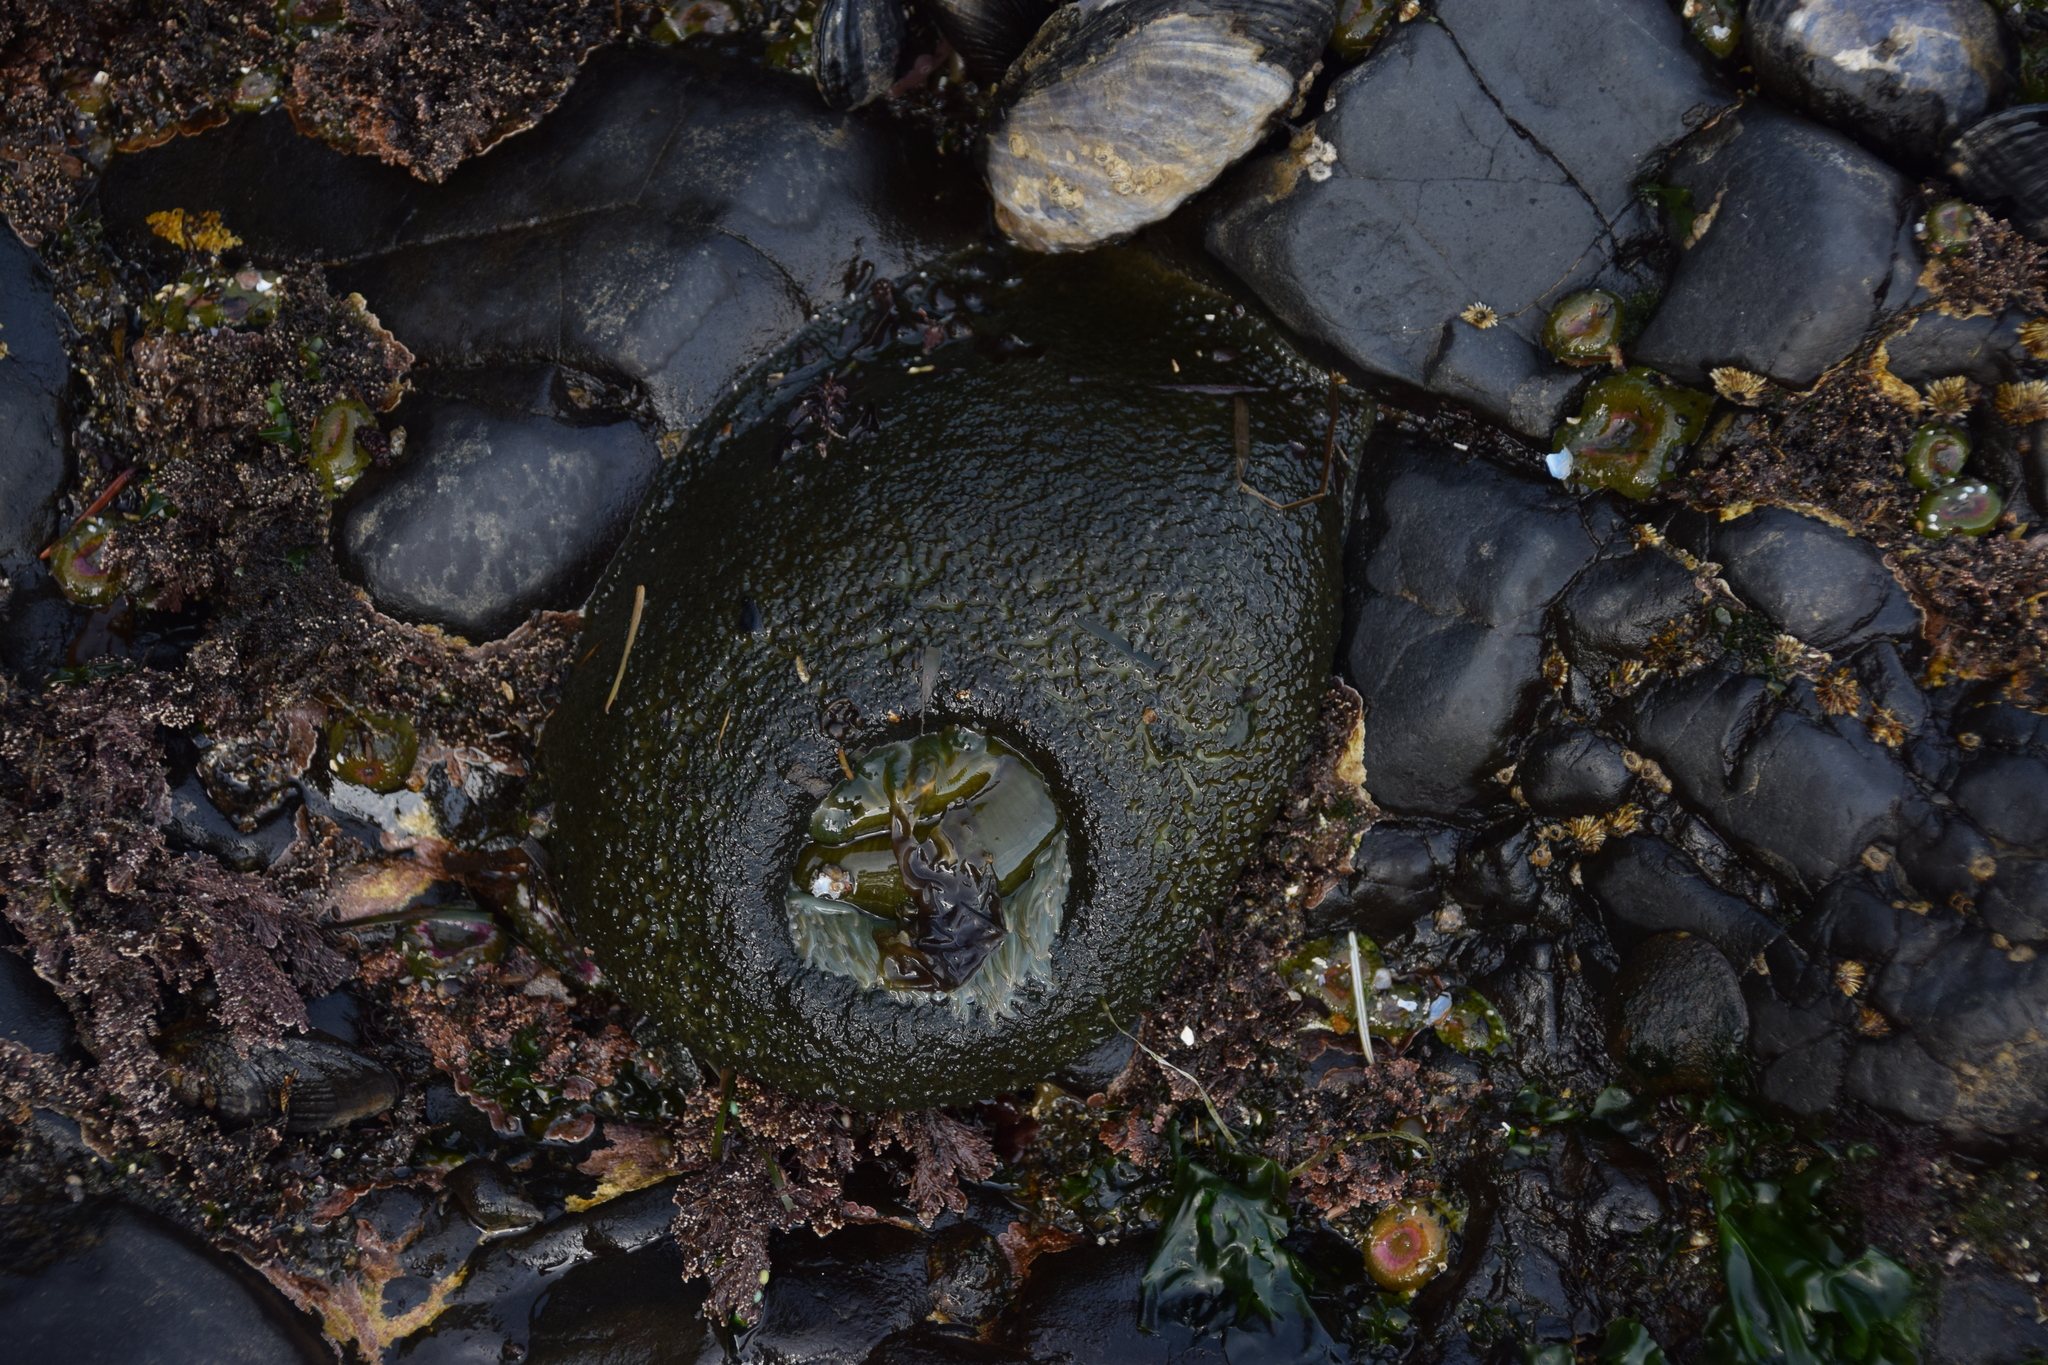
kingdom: Animalia
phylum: Cnidaria
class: Anthozoa
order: Actiniaria
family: Actiniidae
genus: Anthopleura
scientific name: Anthopleura xanthogrammica
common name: Giant green anemone
